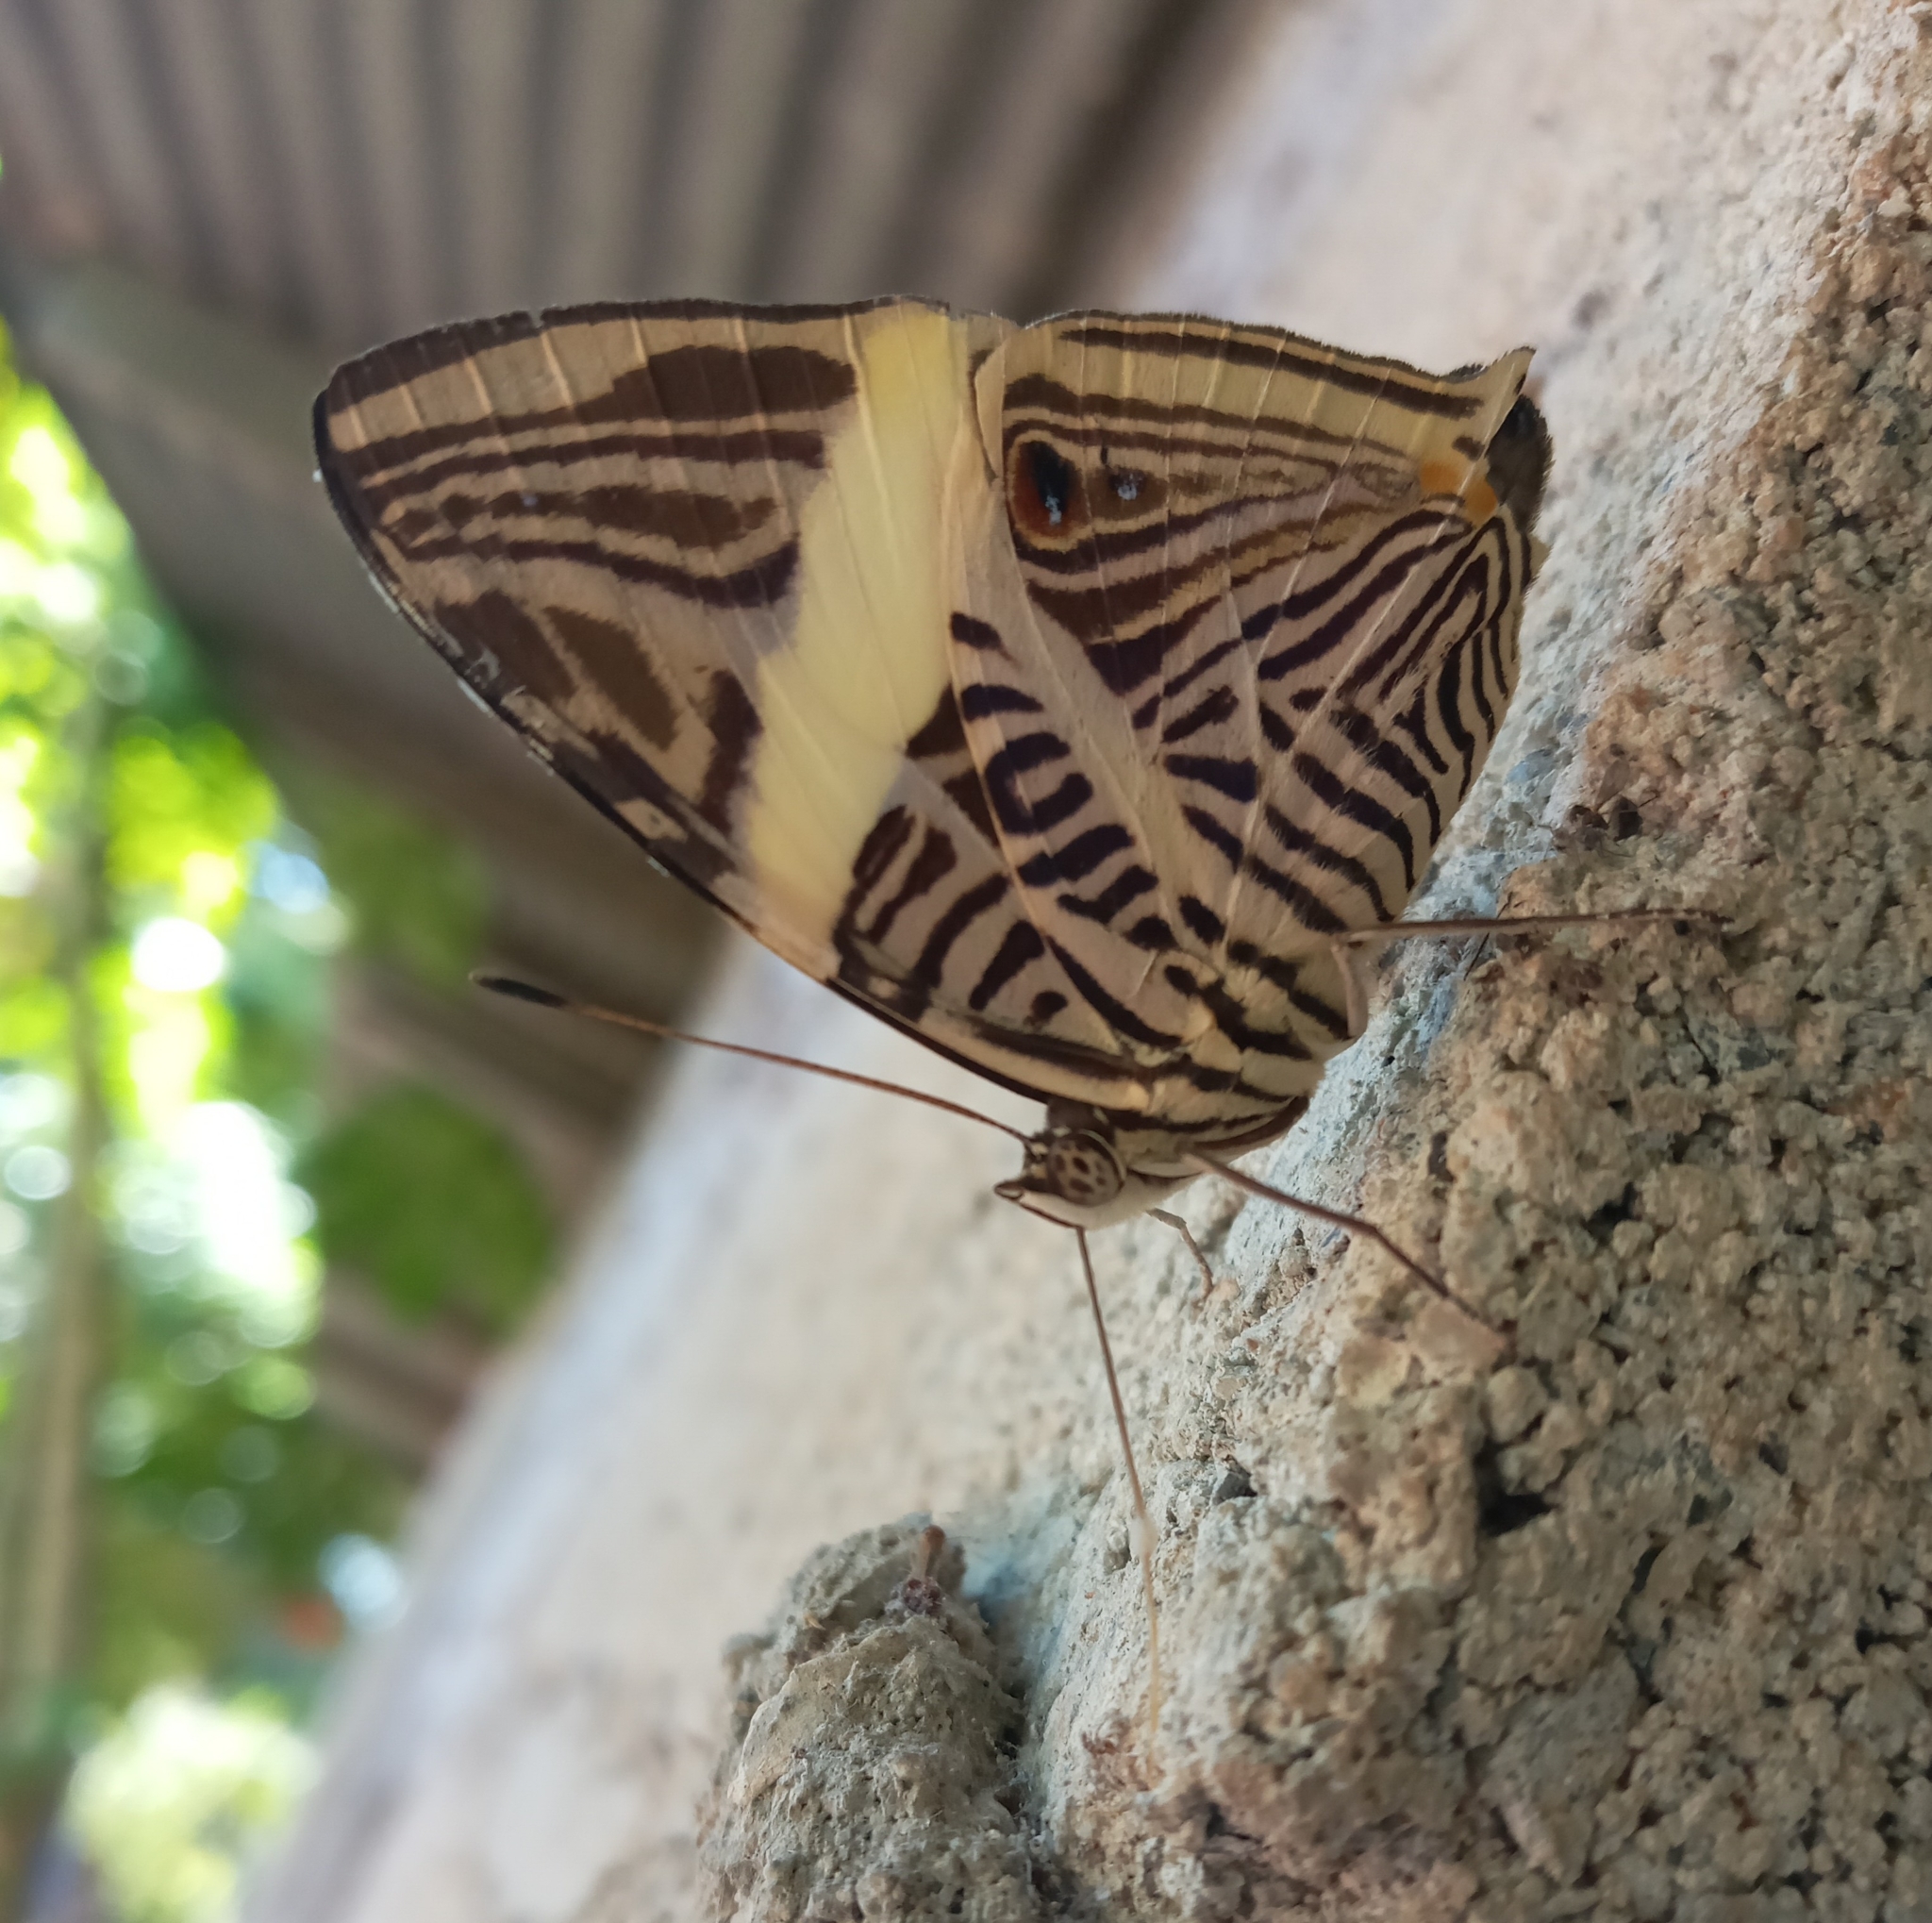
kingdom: Animalia
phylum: Arthropoda
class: Insecta
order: Lepidoptera
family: Nymphalidae
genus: Colobura
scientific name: Colobura dirce
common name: Dirce beauty
